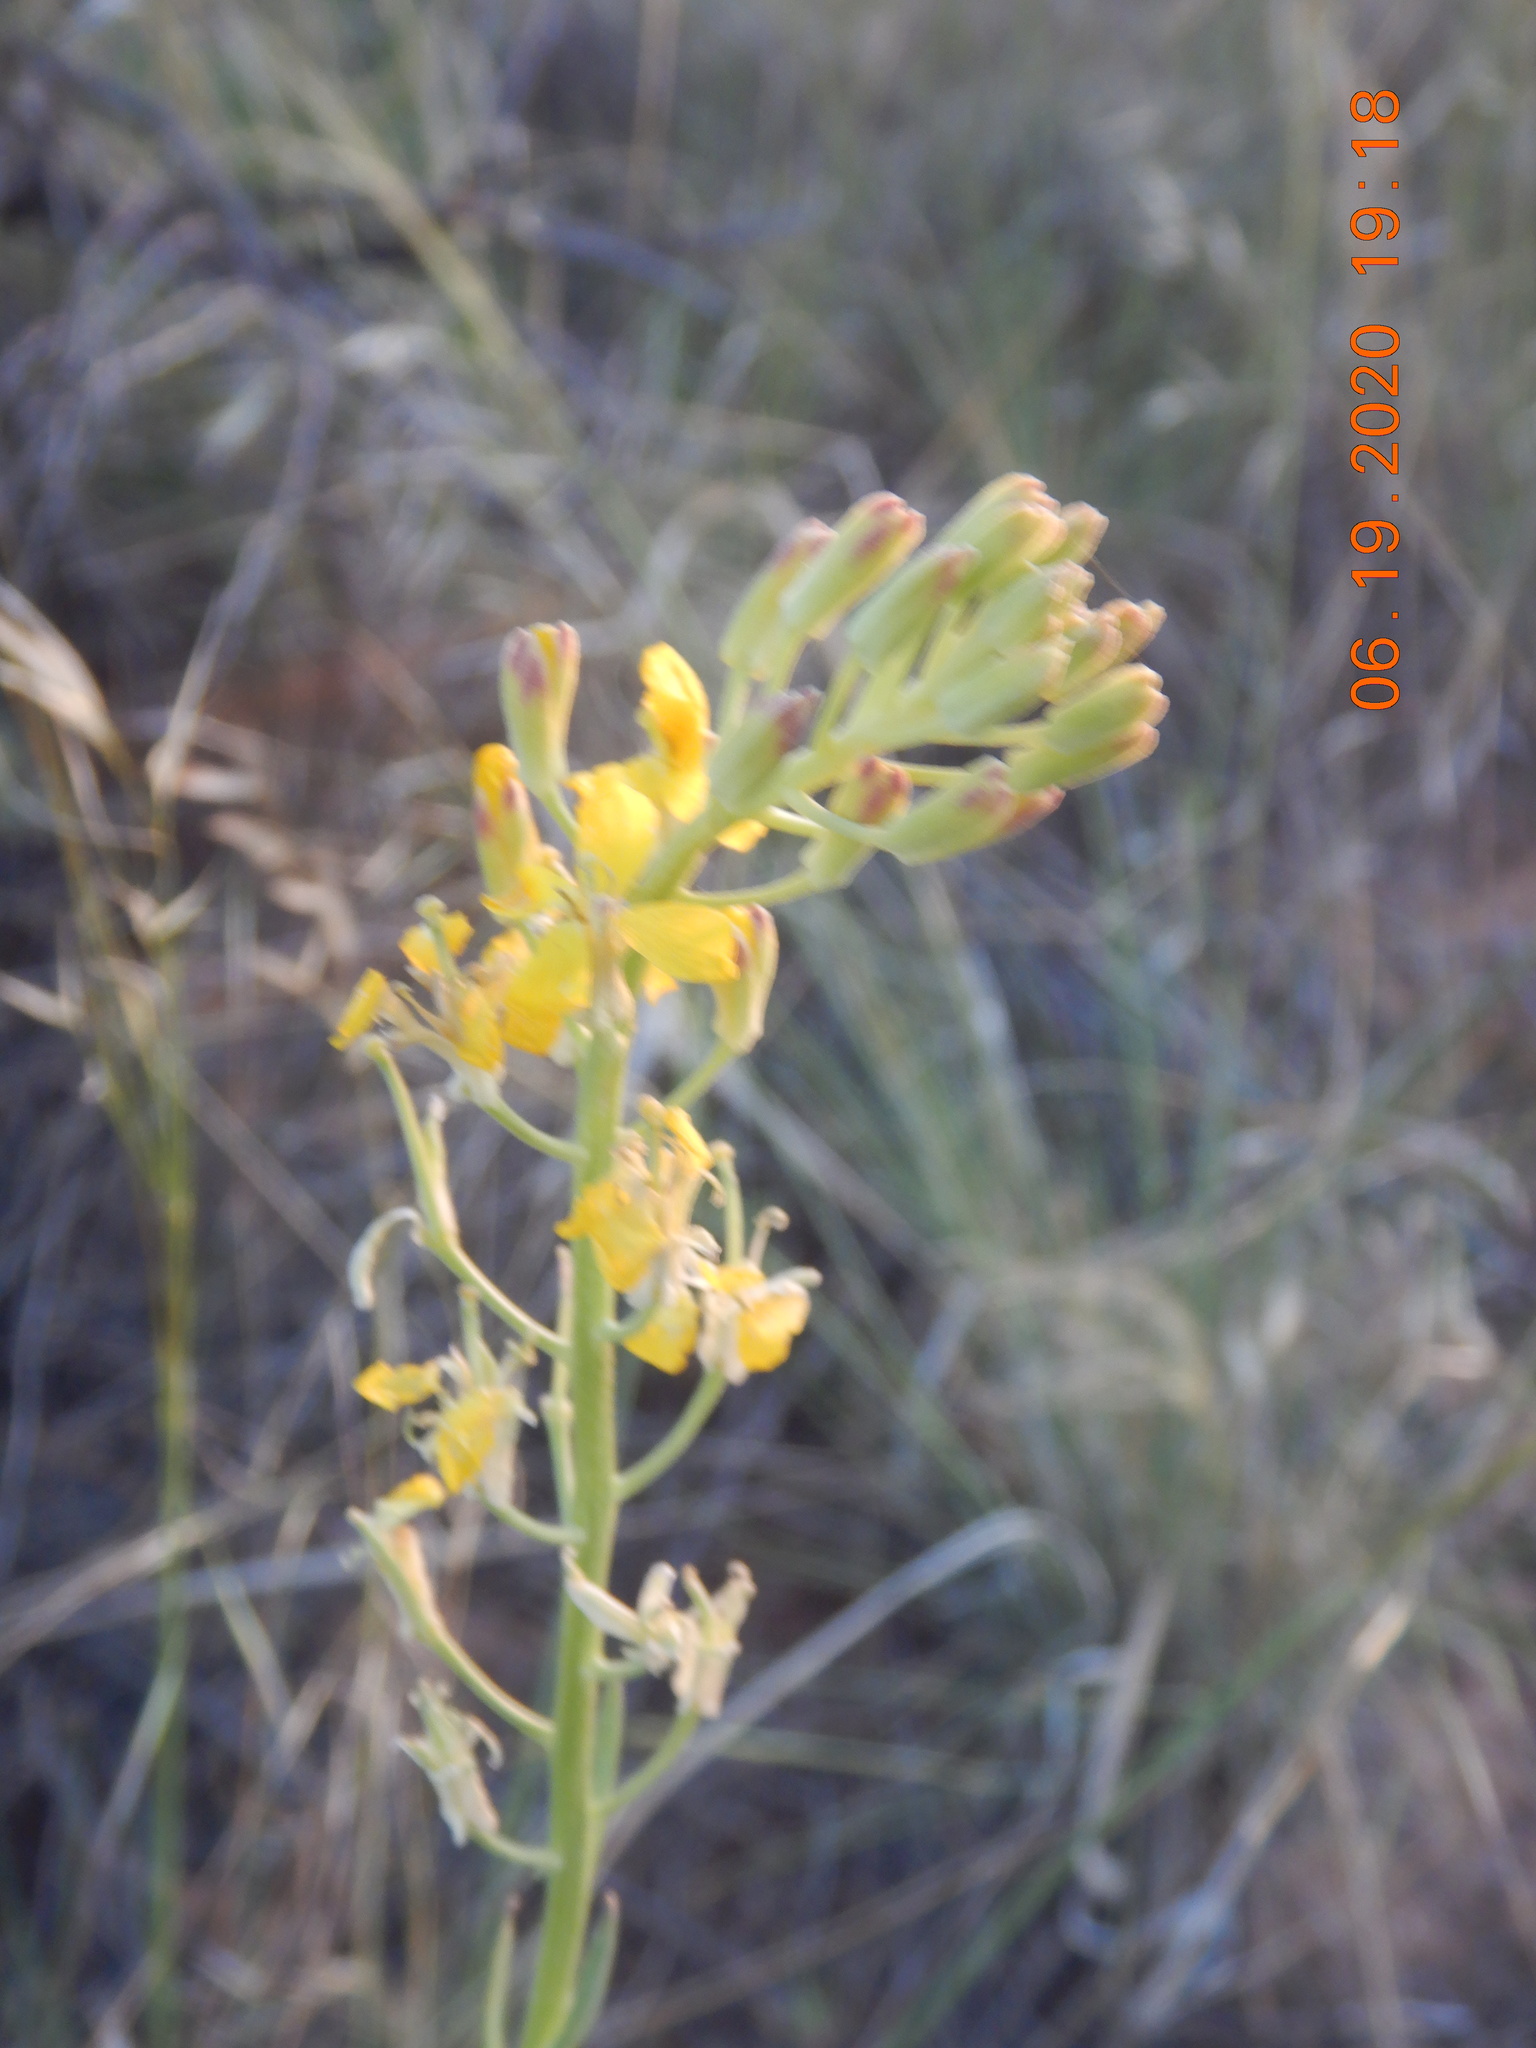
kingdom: Plantae
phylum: Tracheophyta
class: Magnoliopsida
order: Brassicales
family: Brassicaceae
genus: Erysimum
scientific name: Erysimum capitatum
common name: Western wallflower
